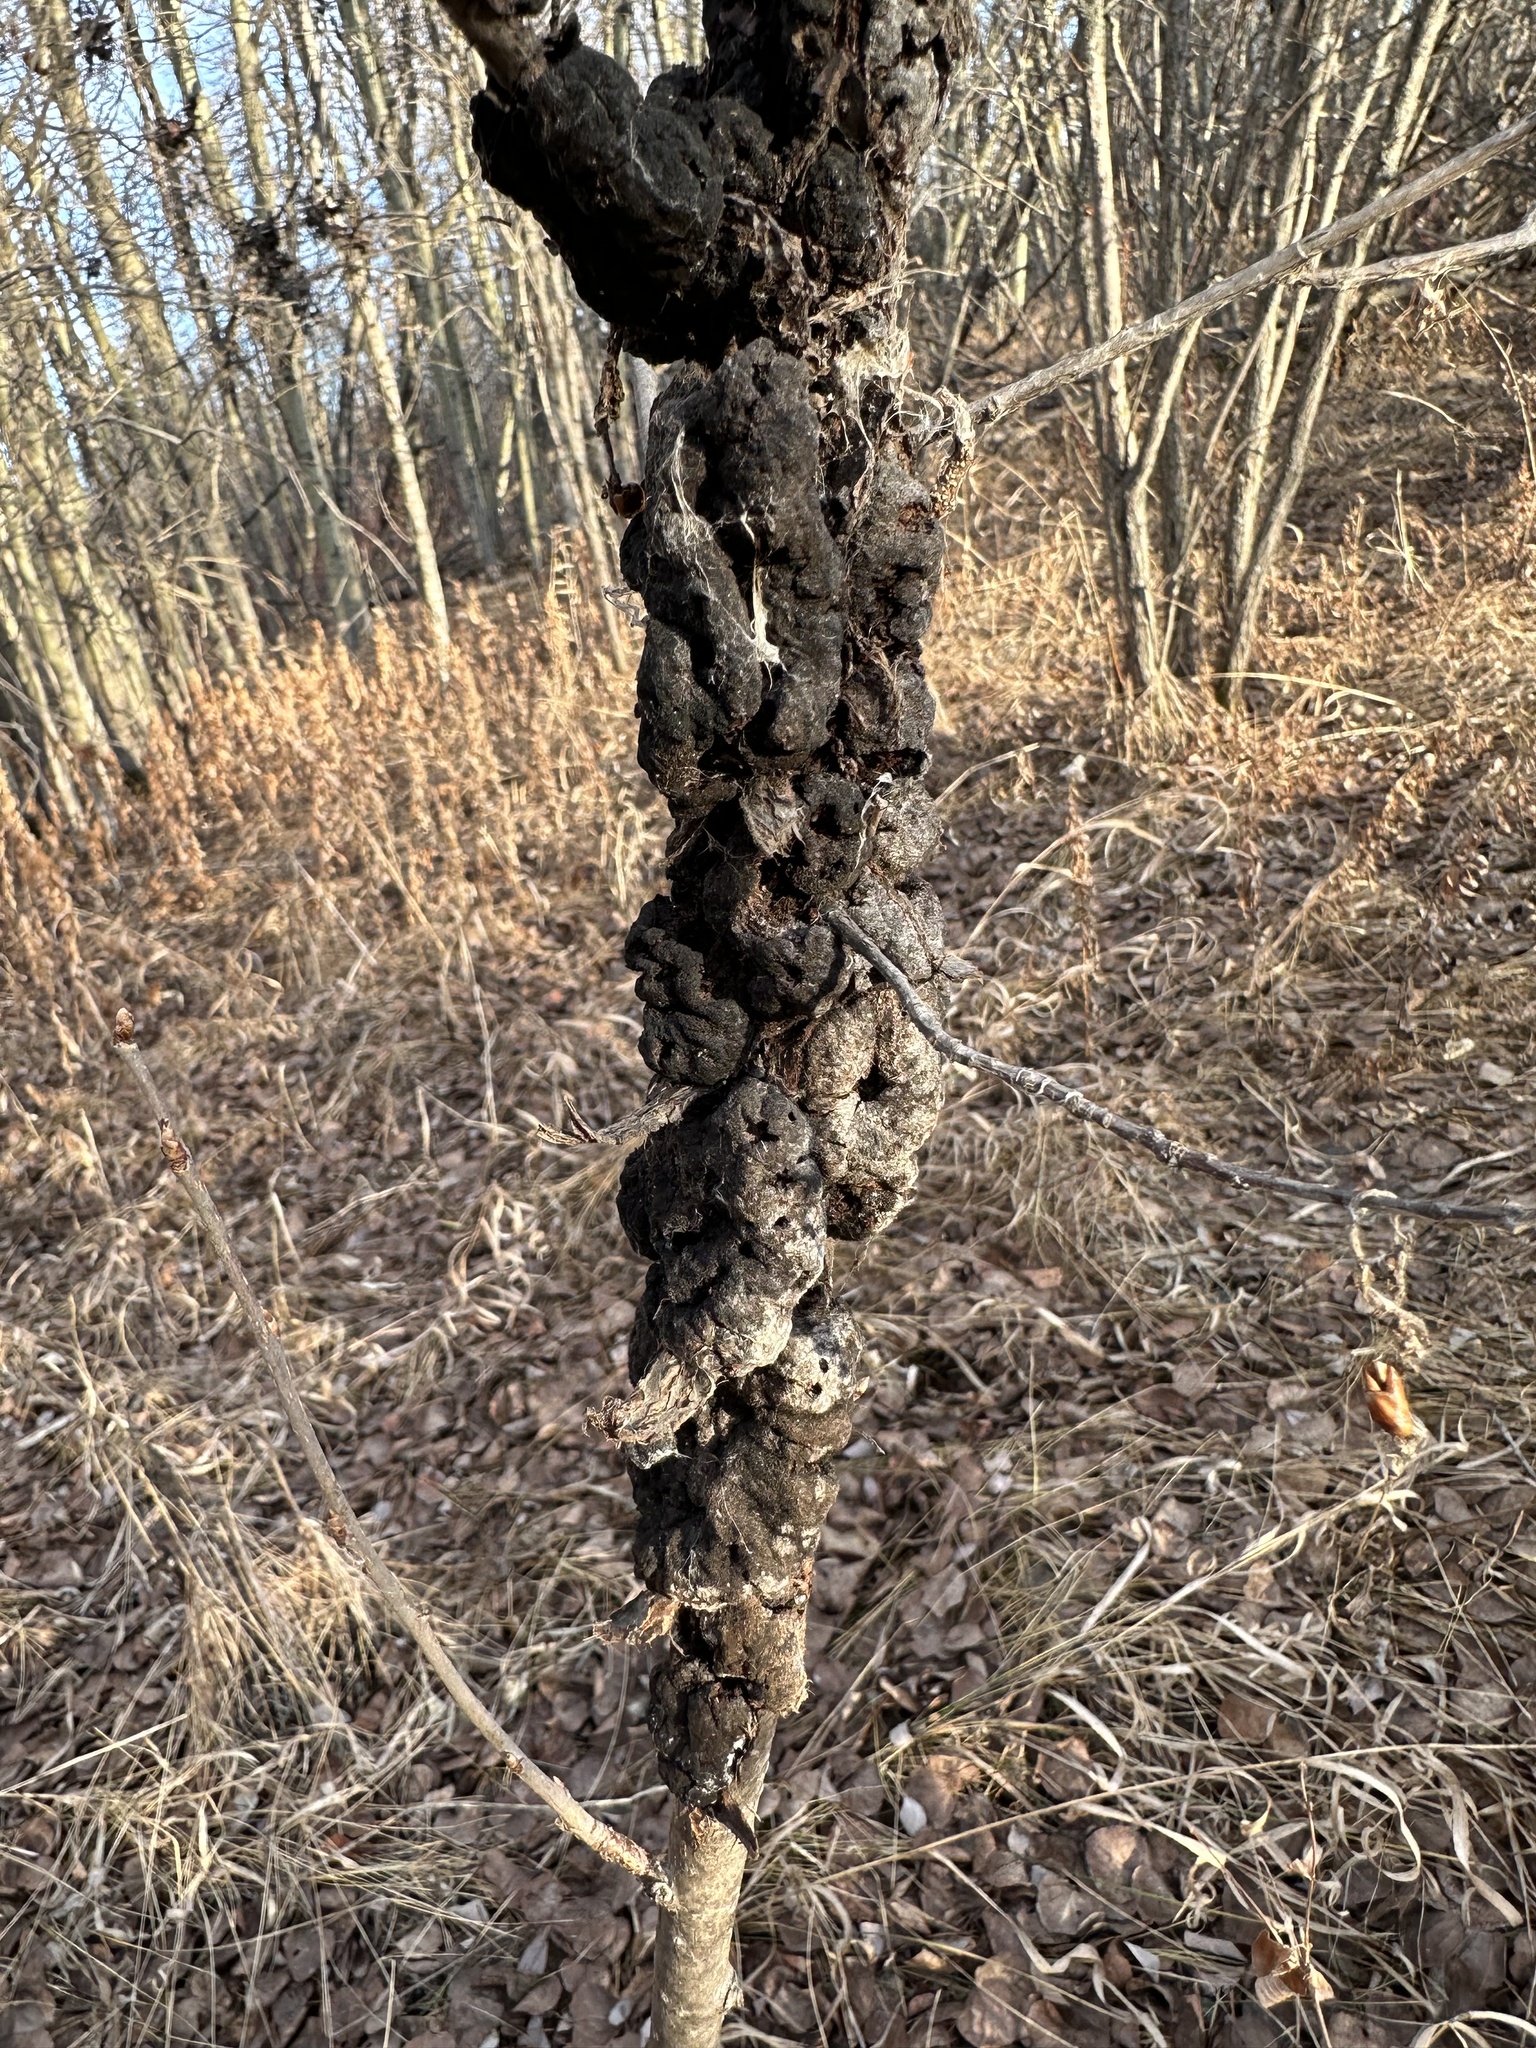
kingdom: Fungi
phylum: Ascomycota
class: Dothideomycetes
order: Venturiales
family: Venturiaceae
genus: Apiosporina
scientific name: Apiosporina morbosa
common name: Black knot
